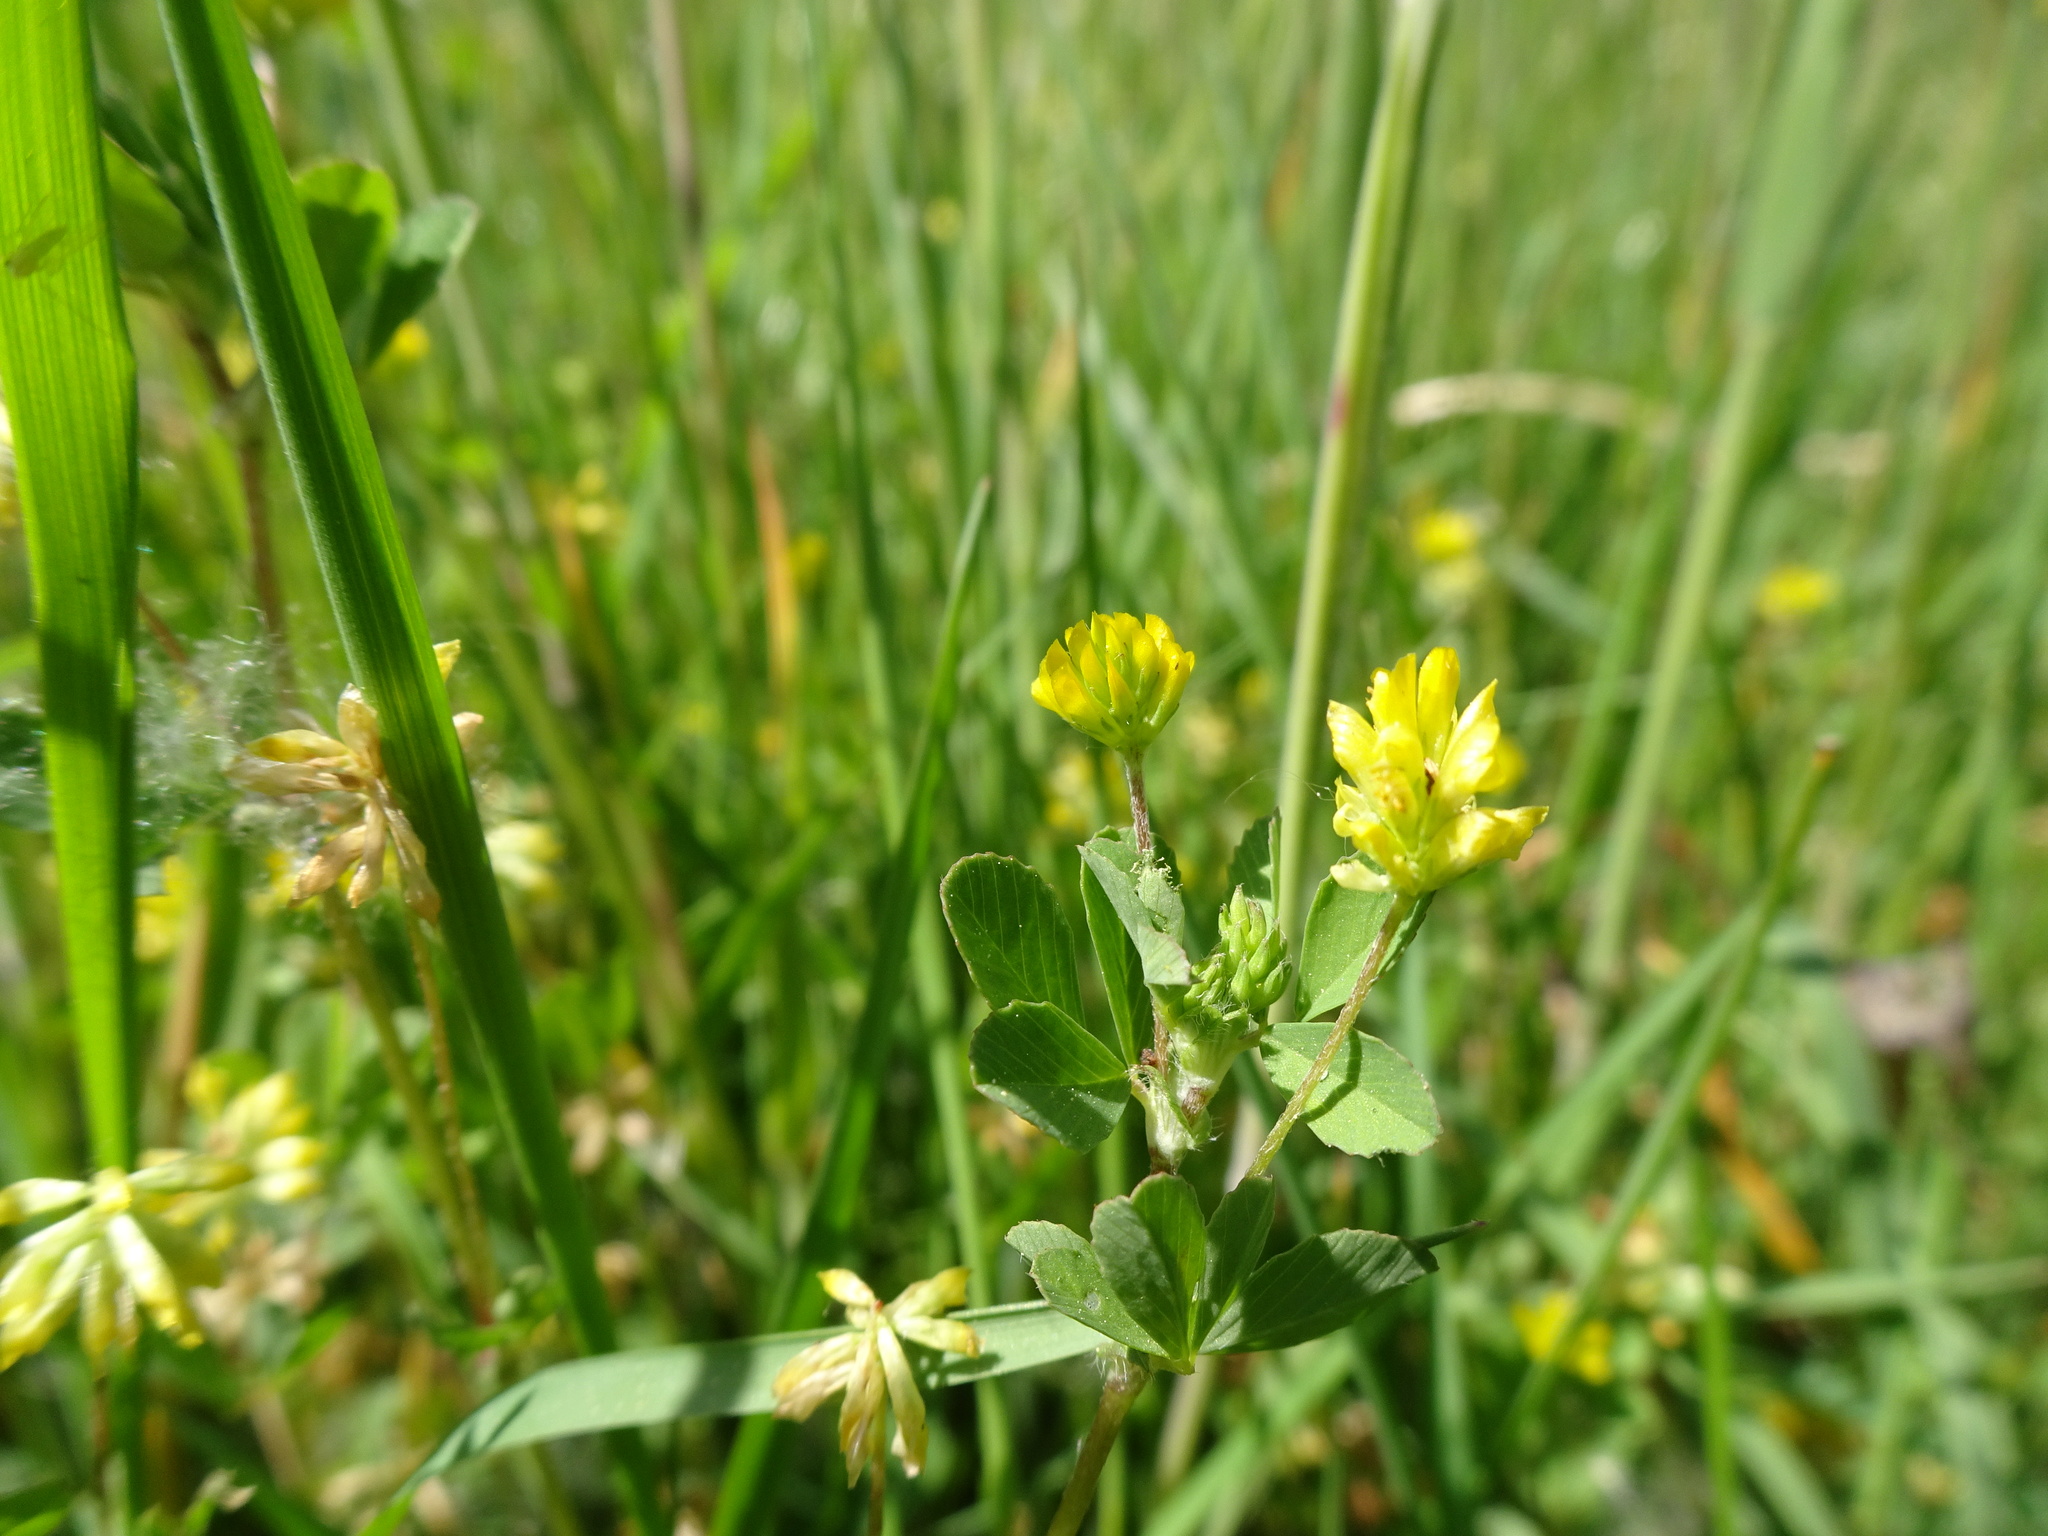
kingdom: Plantae
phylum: Tracheophyta
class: Magnoliopsida
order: Fabales
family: Fabaceae
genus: Trifolium
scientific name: Trifolium dubium
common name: Suckling clover
